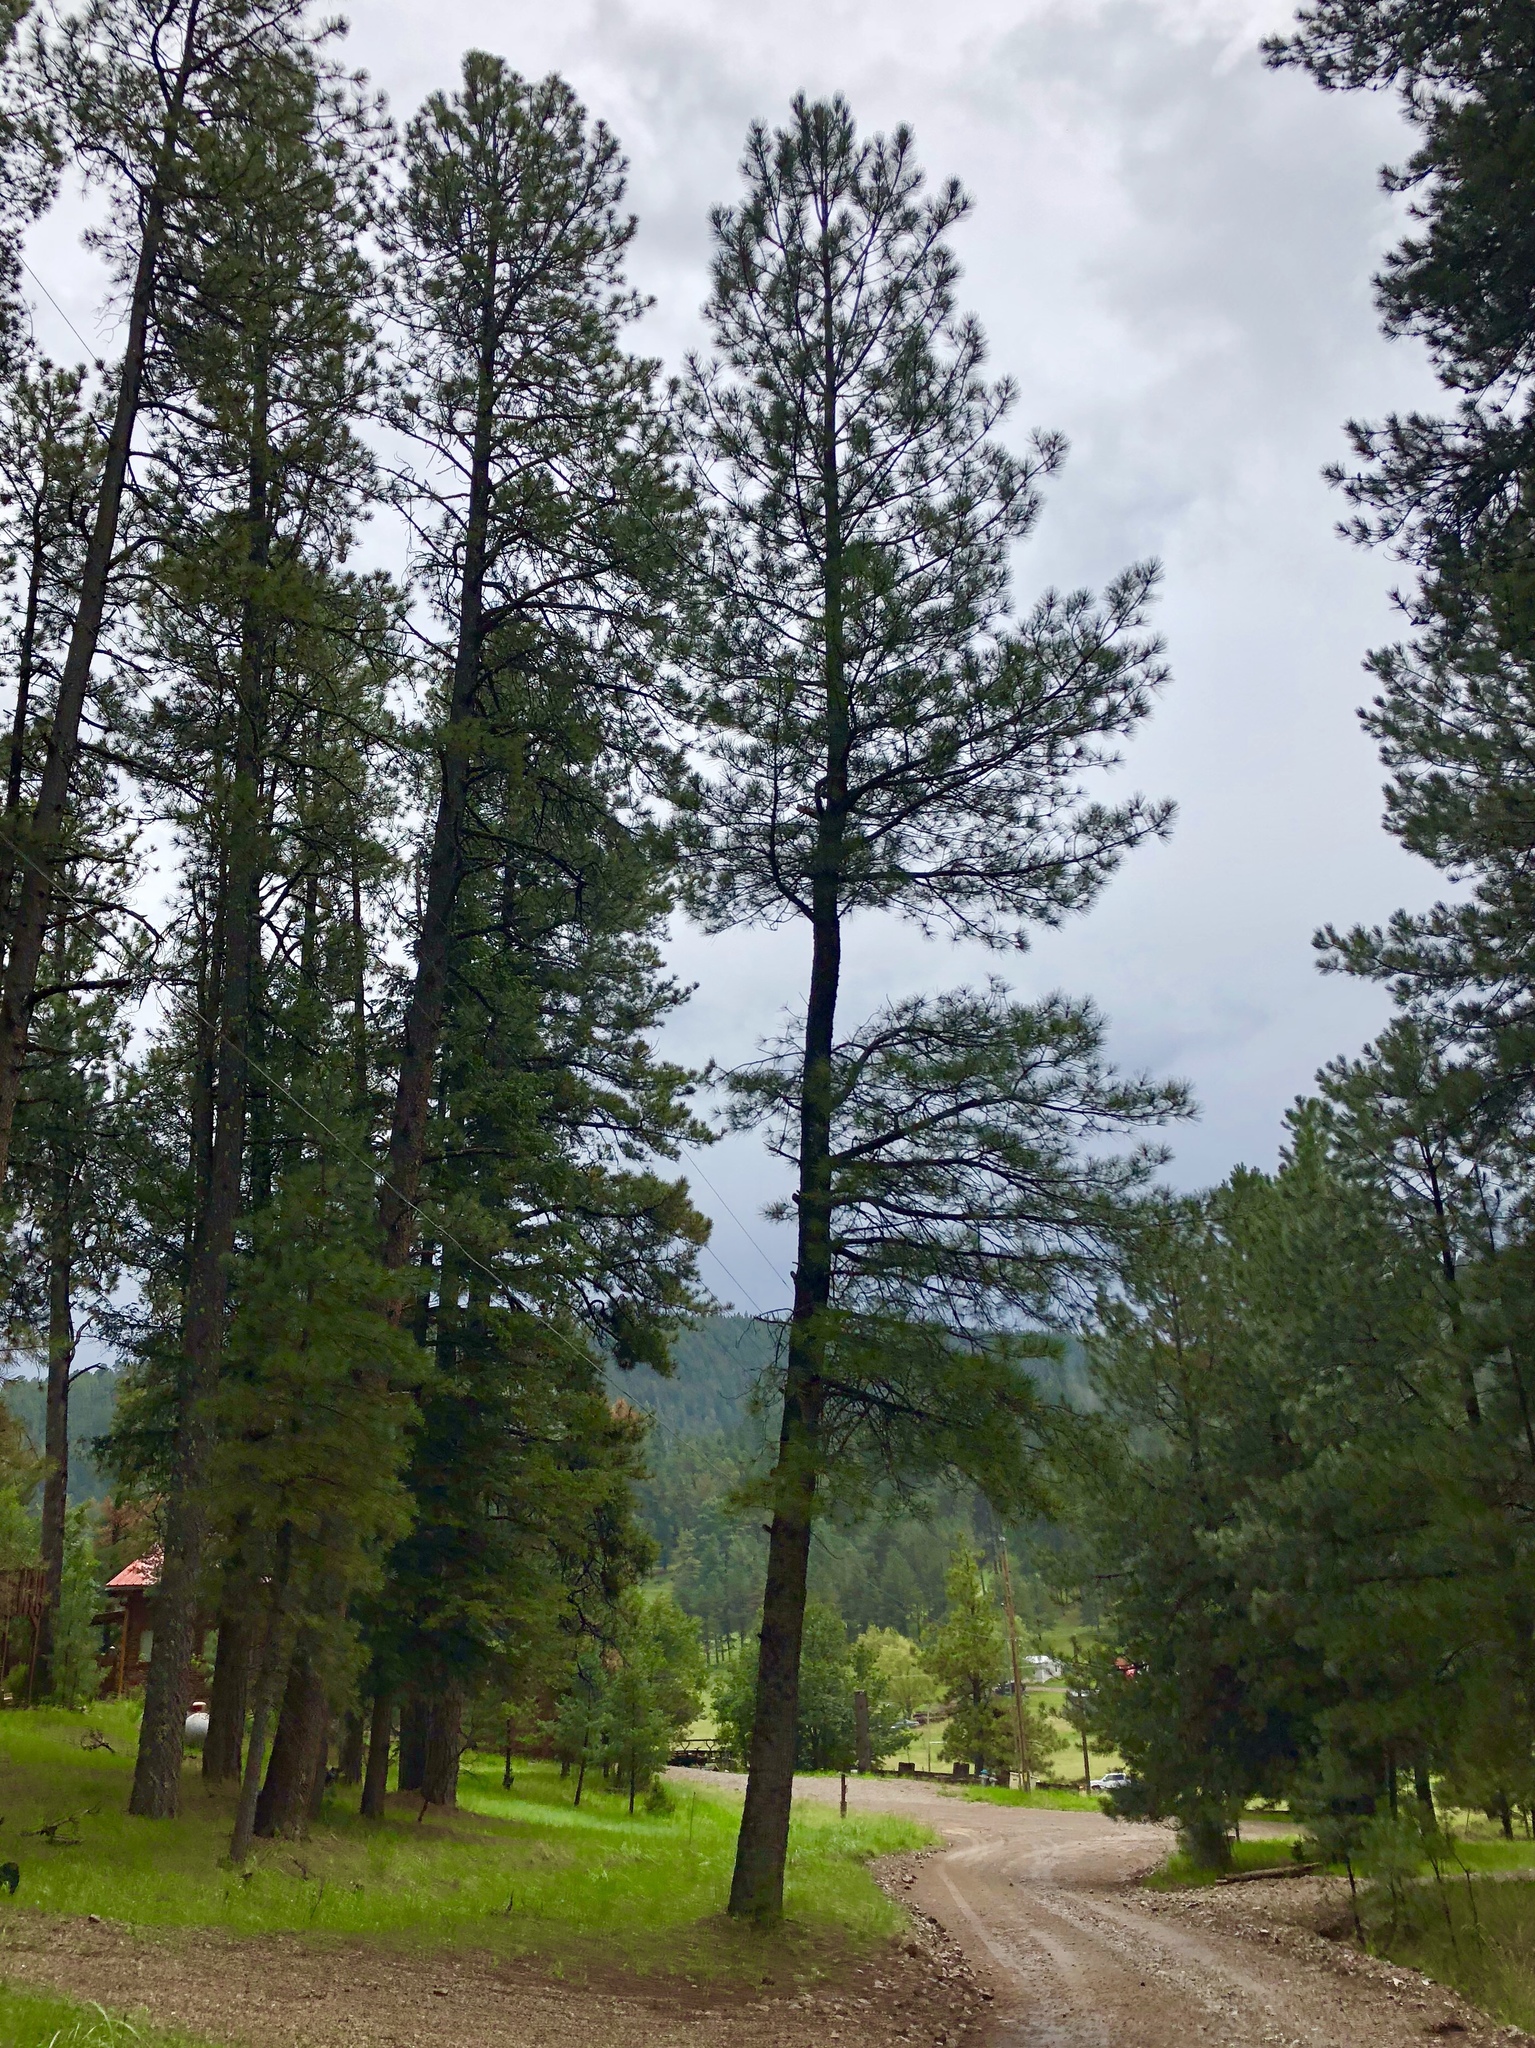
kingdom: Plantae
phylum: Tracheophyta
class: Pinopsida
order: Pinales
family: Pinaceae
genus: Pinus
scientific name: Pinus ponderosa
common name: Western yellow-pine
